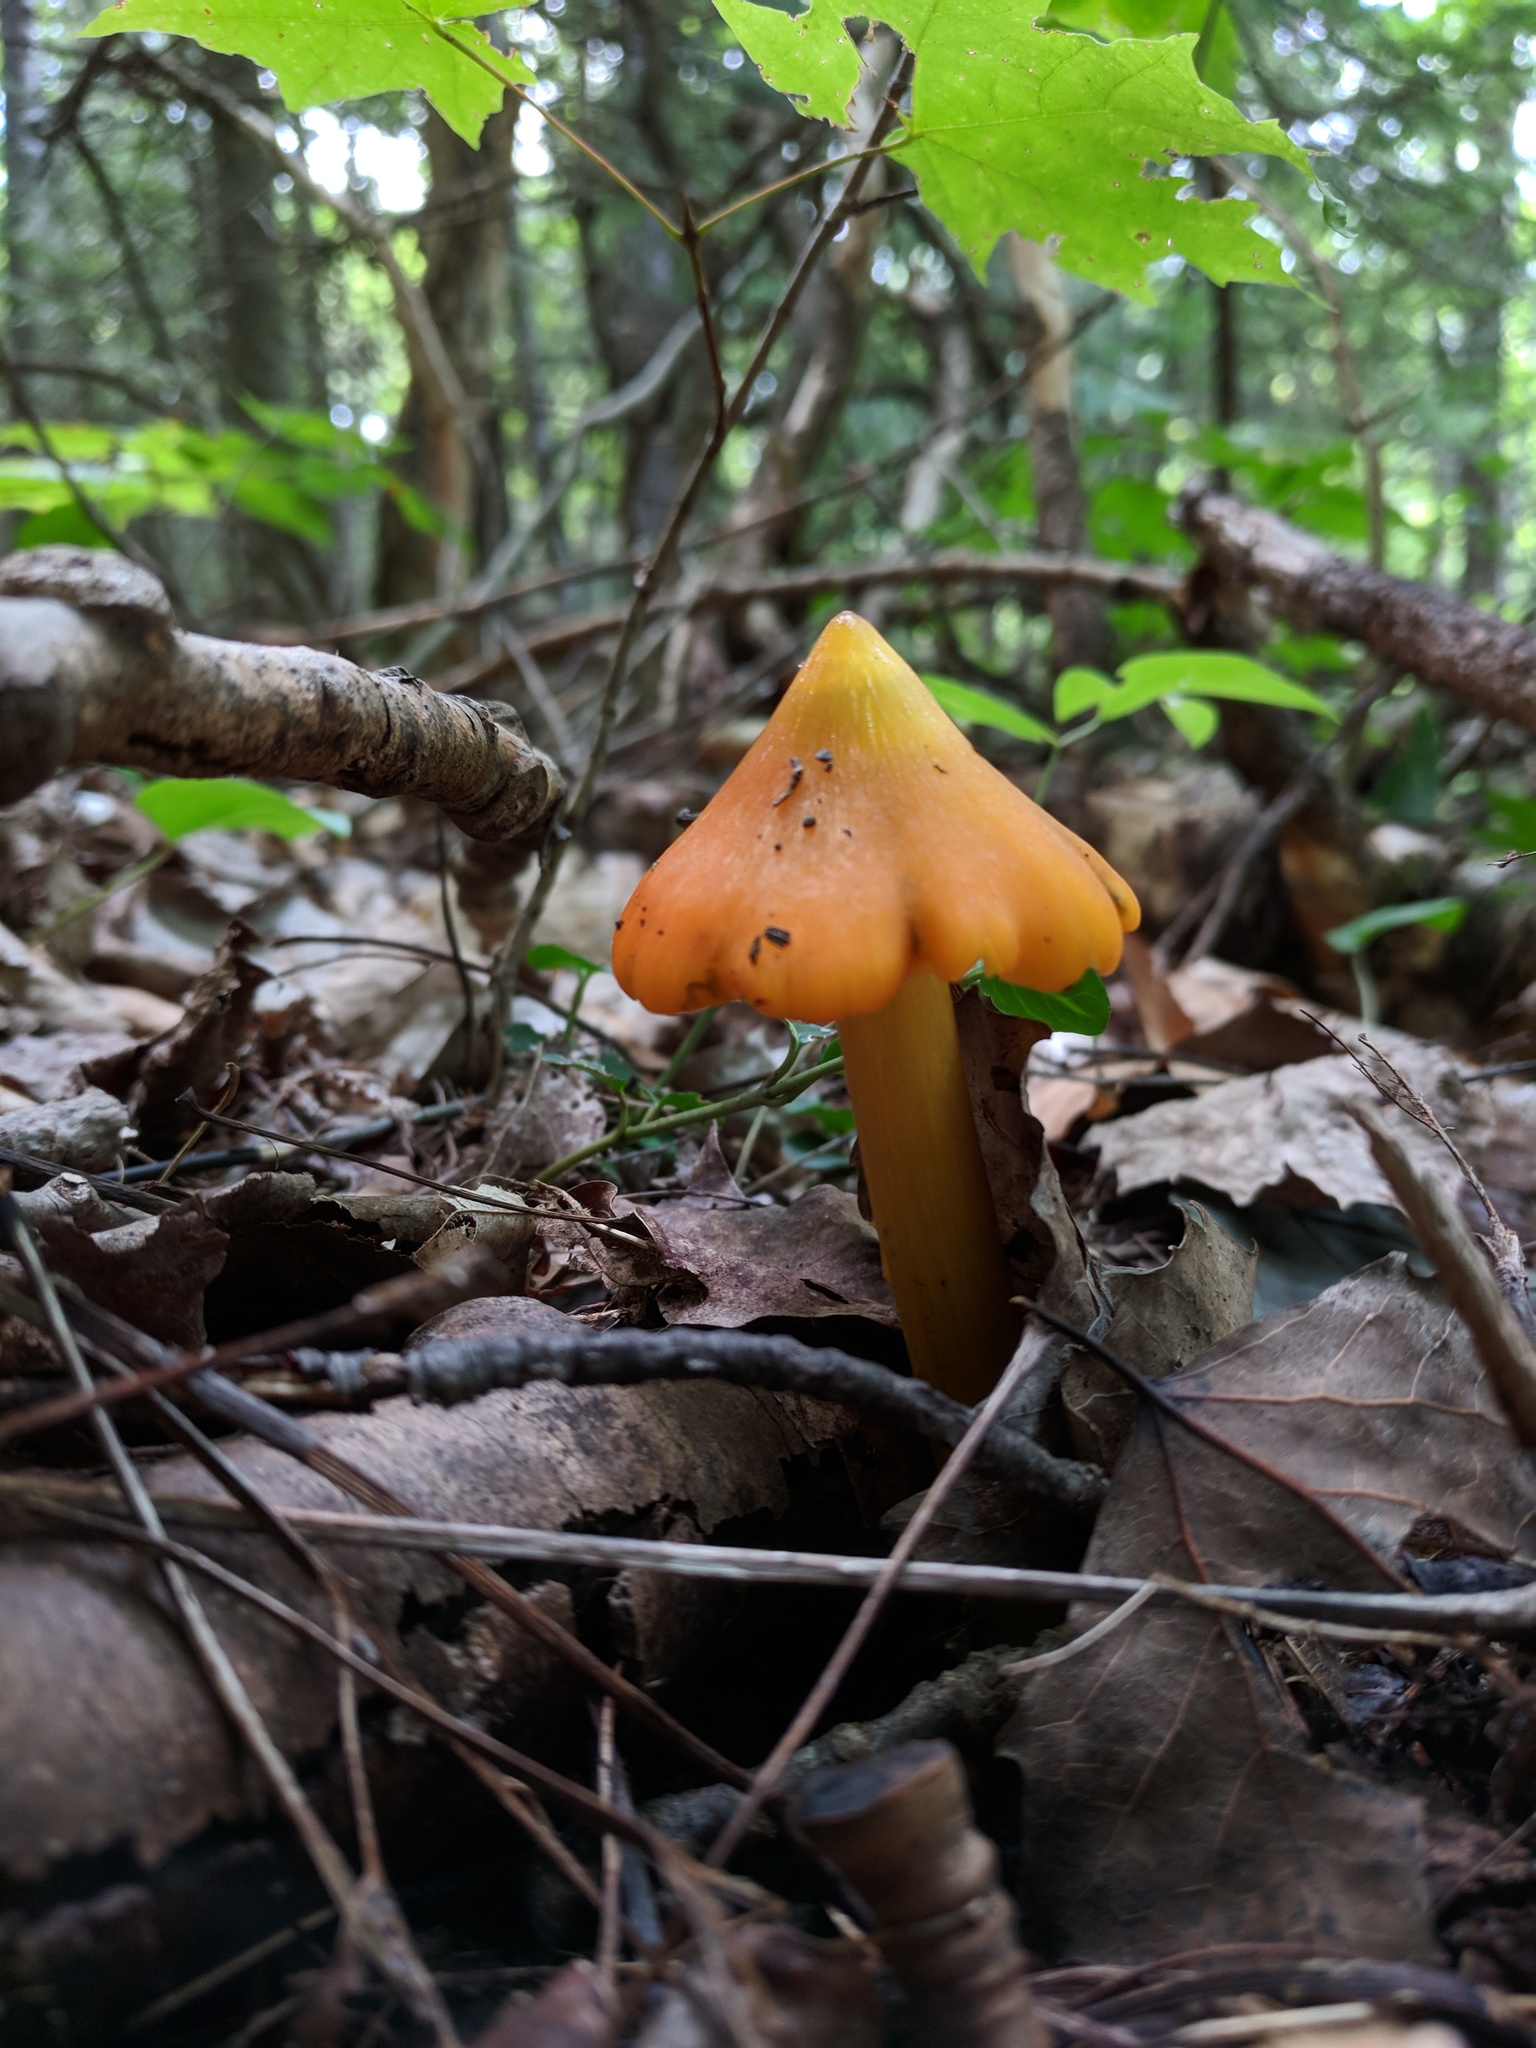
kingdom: Fungi
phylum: Basidiomycota
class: Agaricomycetes
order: Agaricales
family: Hygrophoraceae
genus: Hygrocybe
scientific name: Hygrocybe conica
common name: Blackening wax-cap
